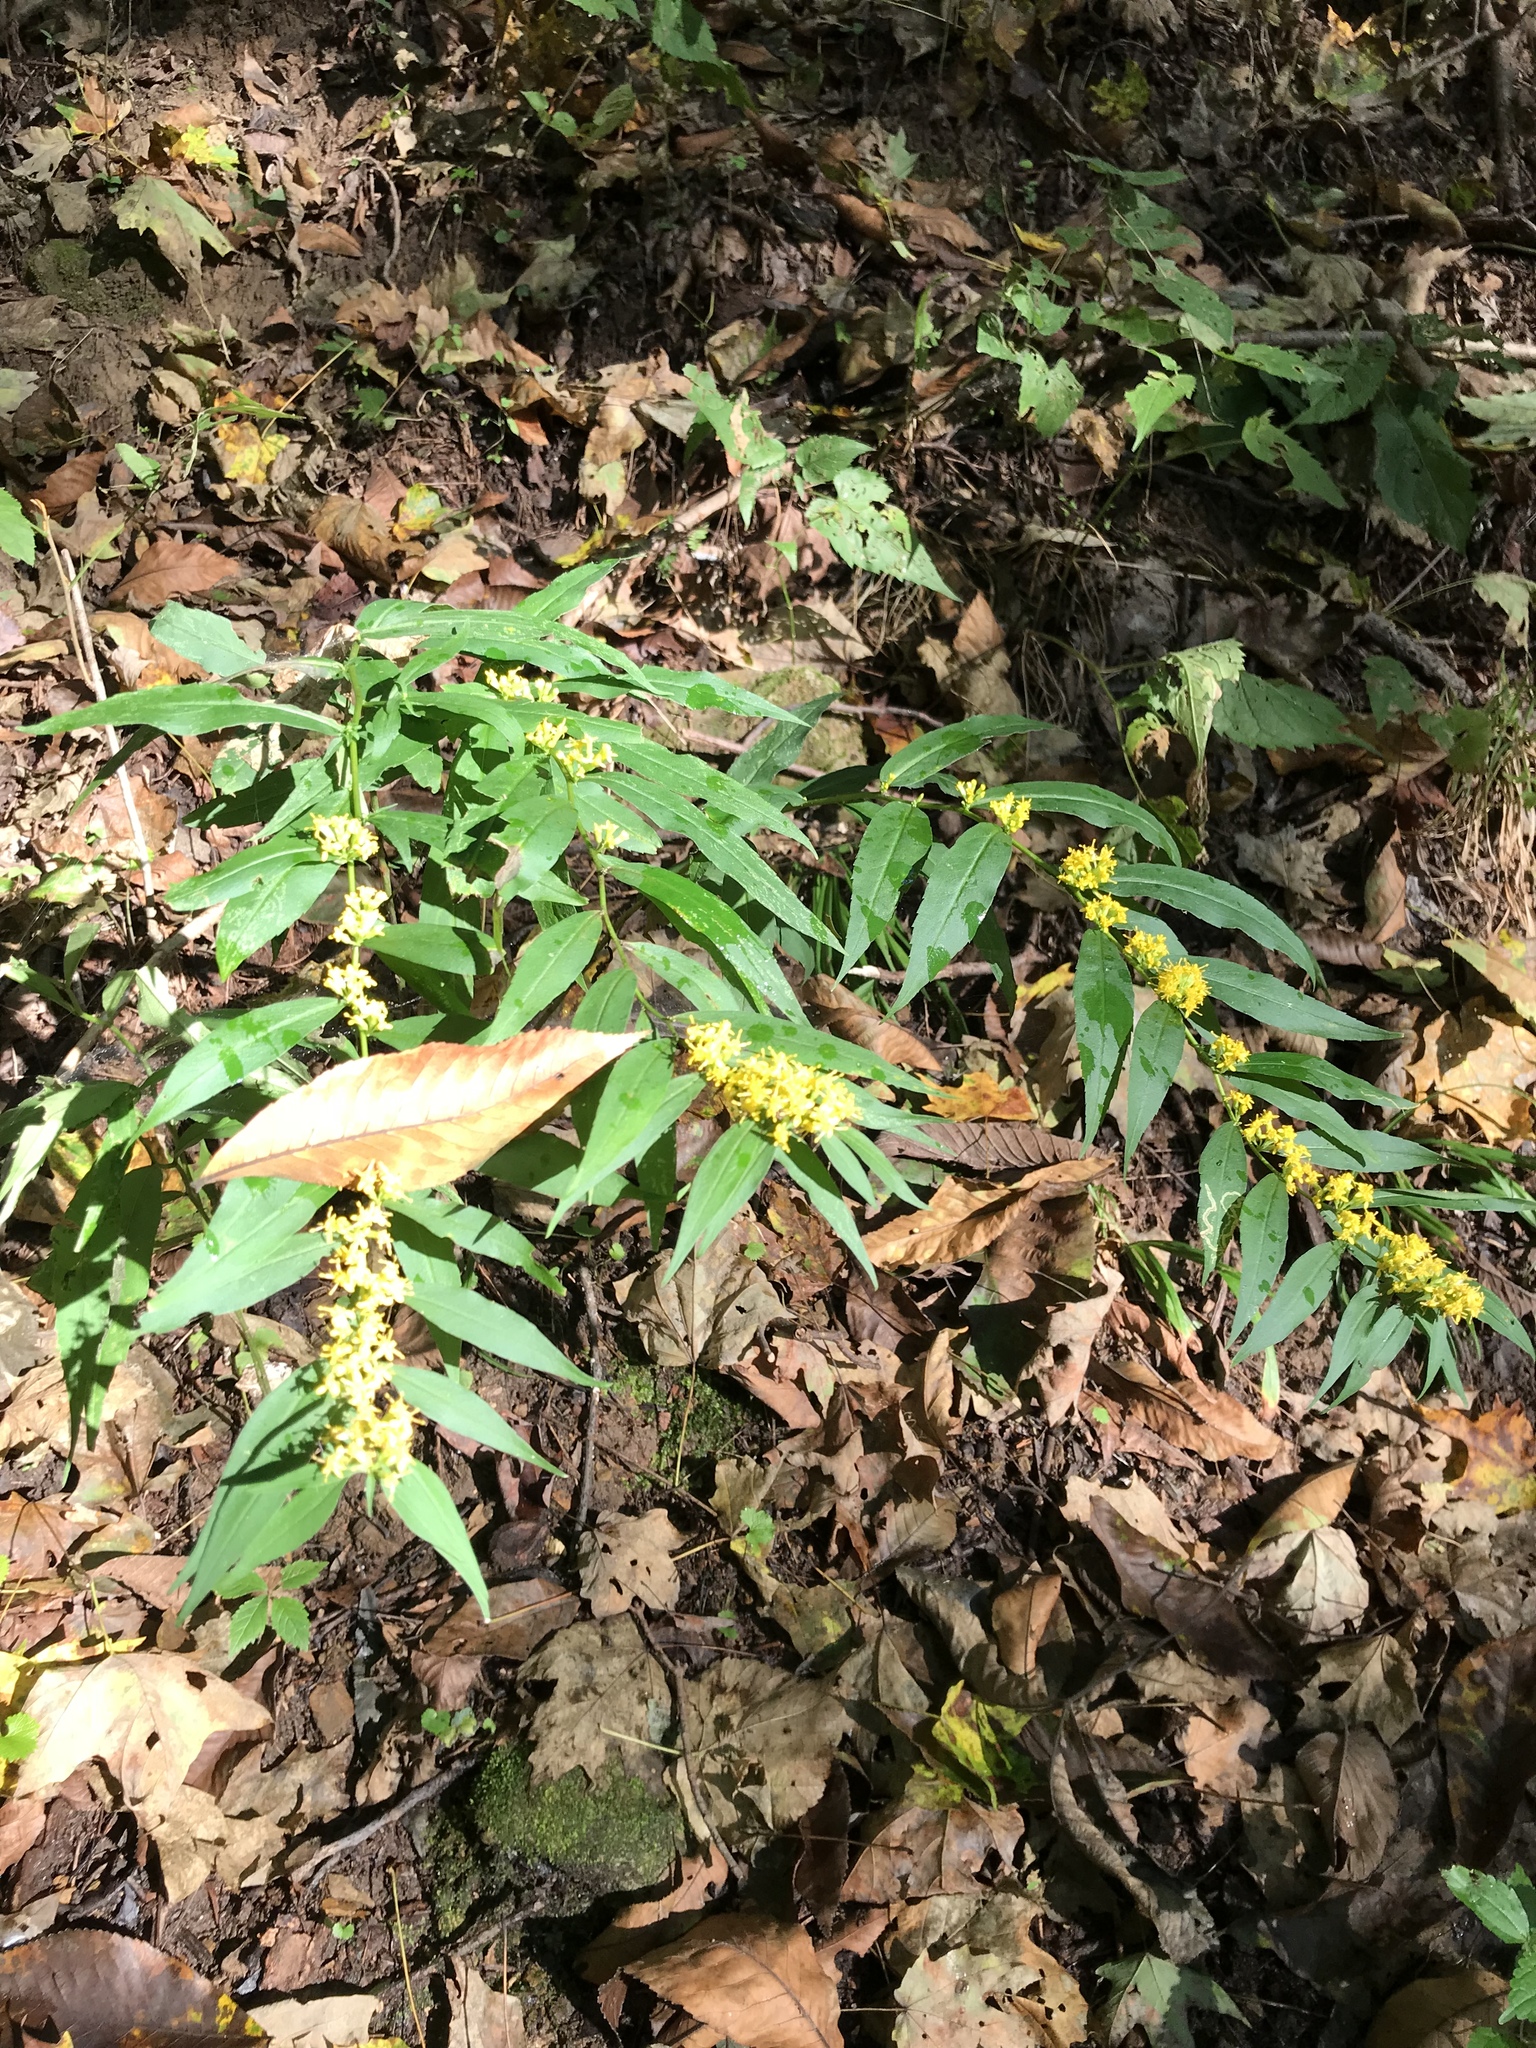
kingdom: Plantae
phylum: Tracheophyta
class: Magnoliopsida
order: Asterales
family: Asteraceae
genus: Solidago
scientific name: Solidago caesia
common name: Woodland goldenrod
